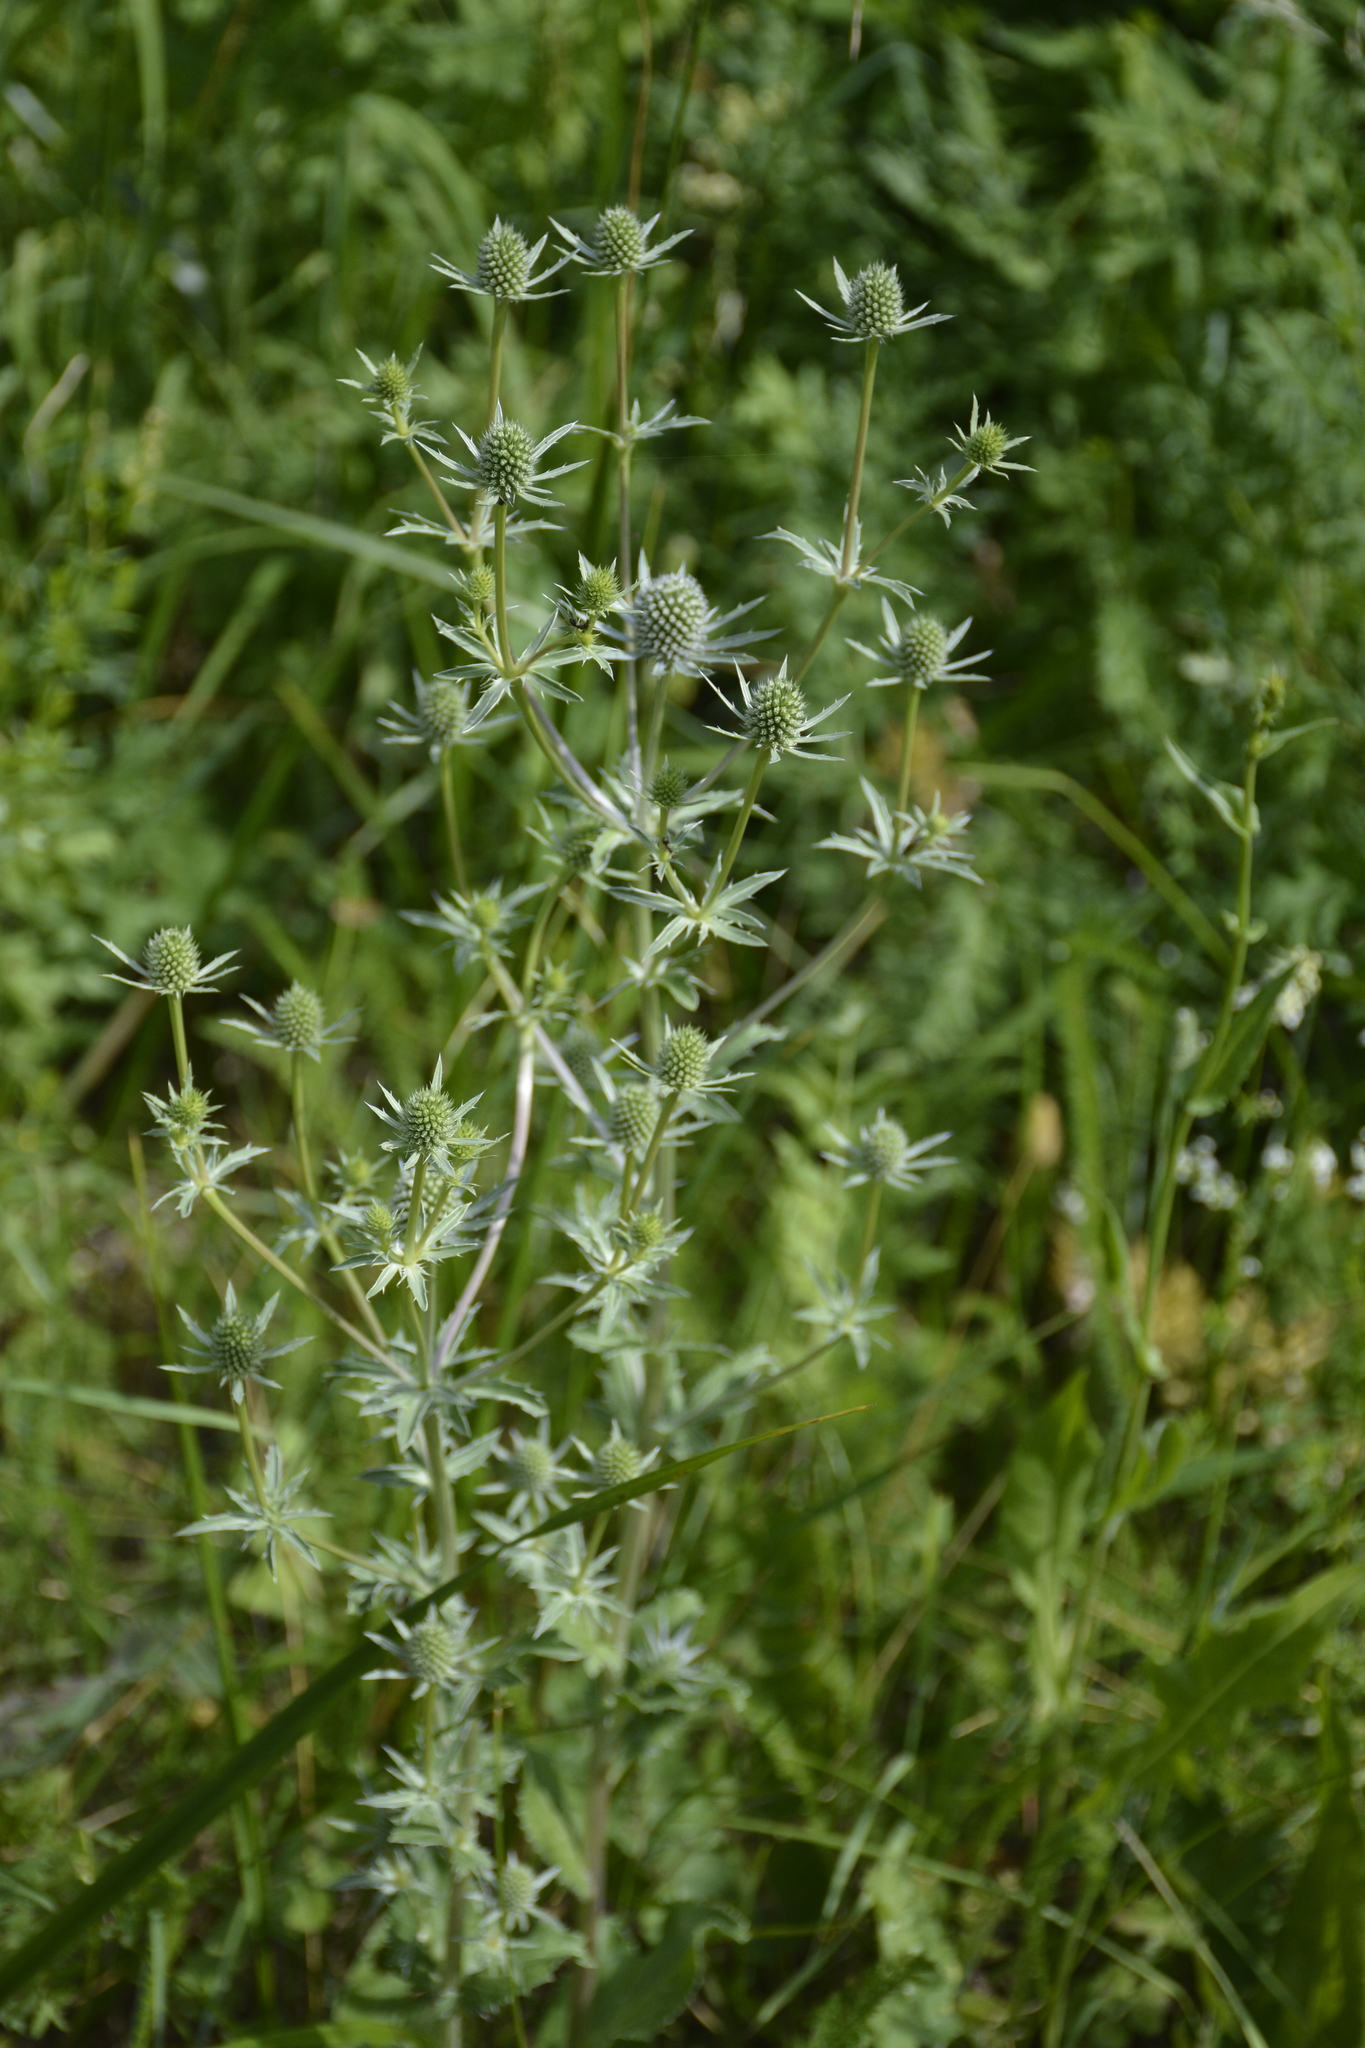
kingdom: Plantae
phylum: Tracheophyta
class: Magnoliopsida
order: Apiales
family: Apiaceae
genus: Eryngium
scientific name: Eryngium planum
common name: Blue eryngo
